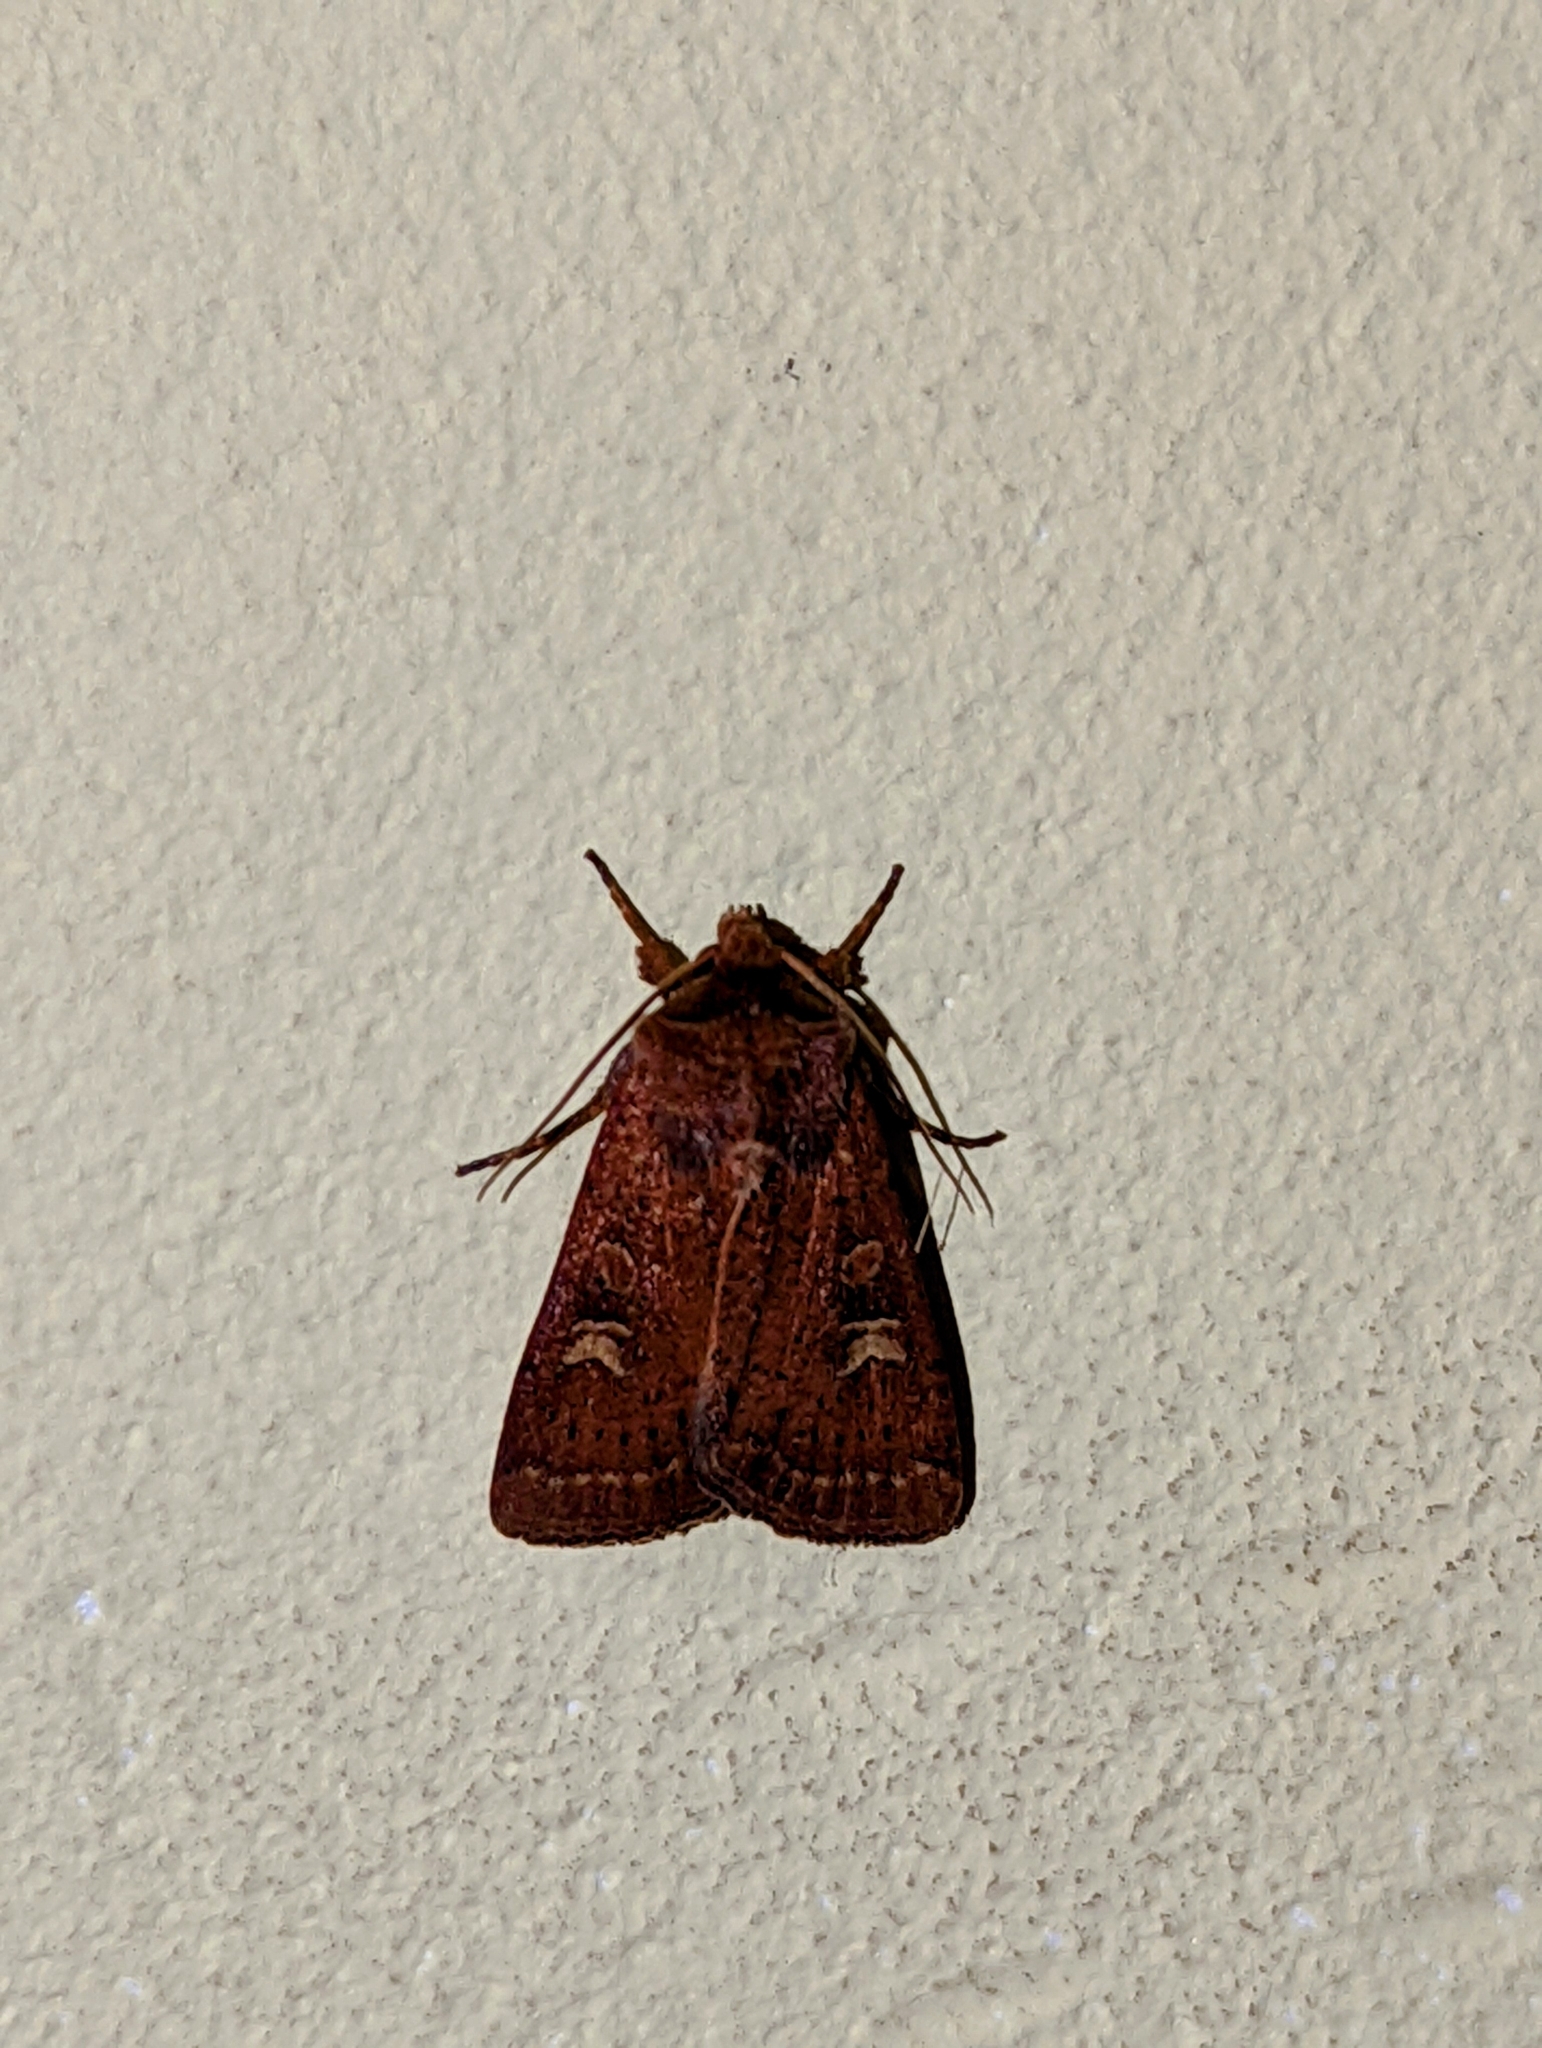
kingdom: Animalia
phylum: Arthropoda
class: Insecta
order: Lepidoptera
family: Noctuidae
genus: Xestia
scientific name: Xestia xanthographa
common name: Square-spot rustic
